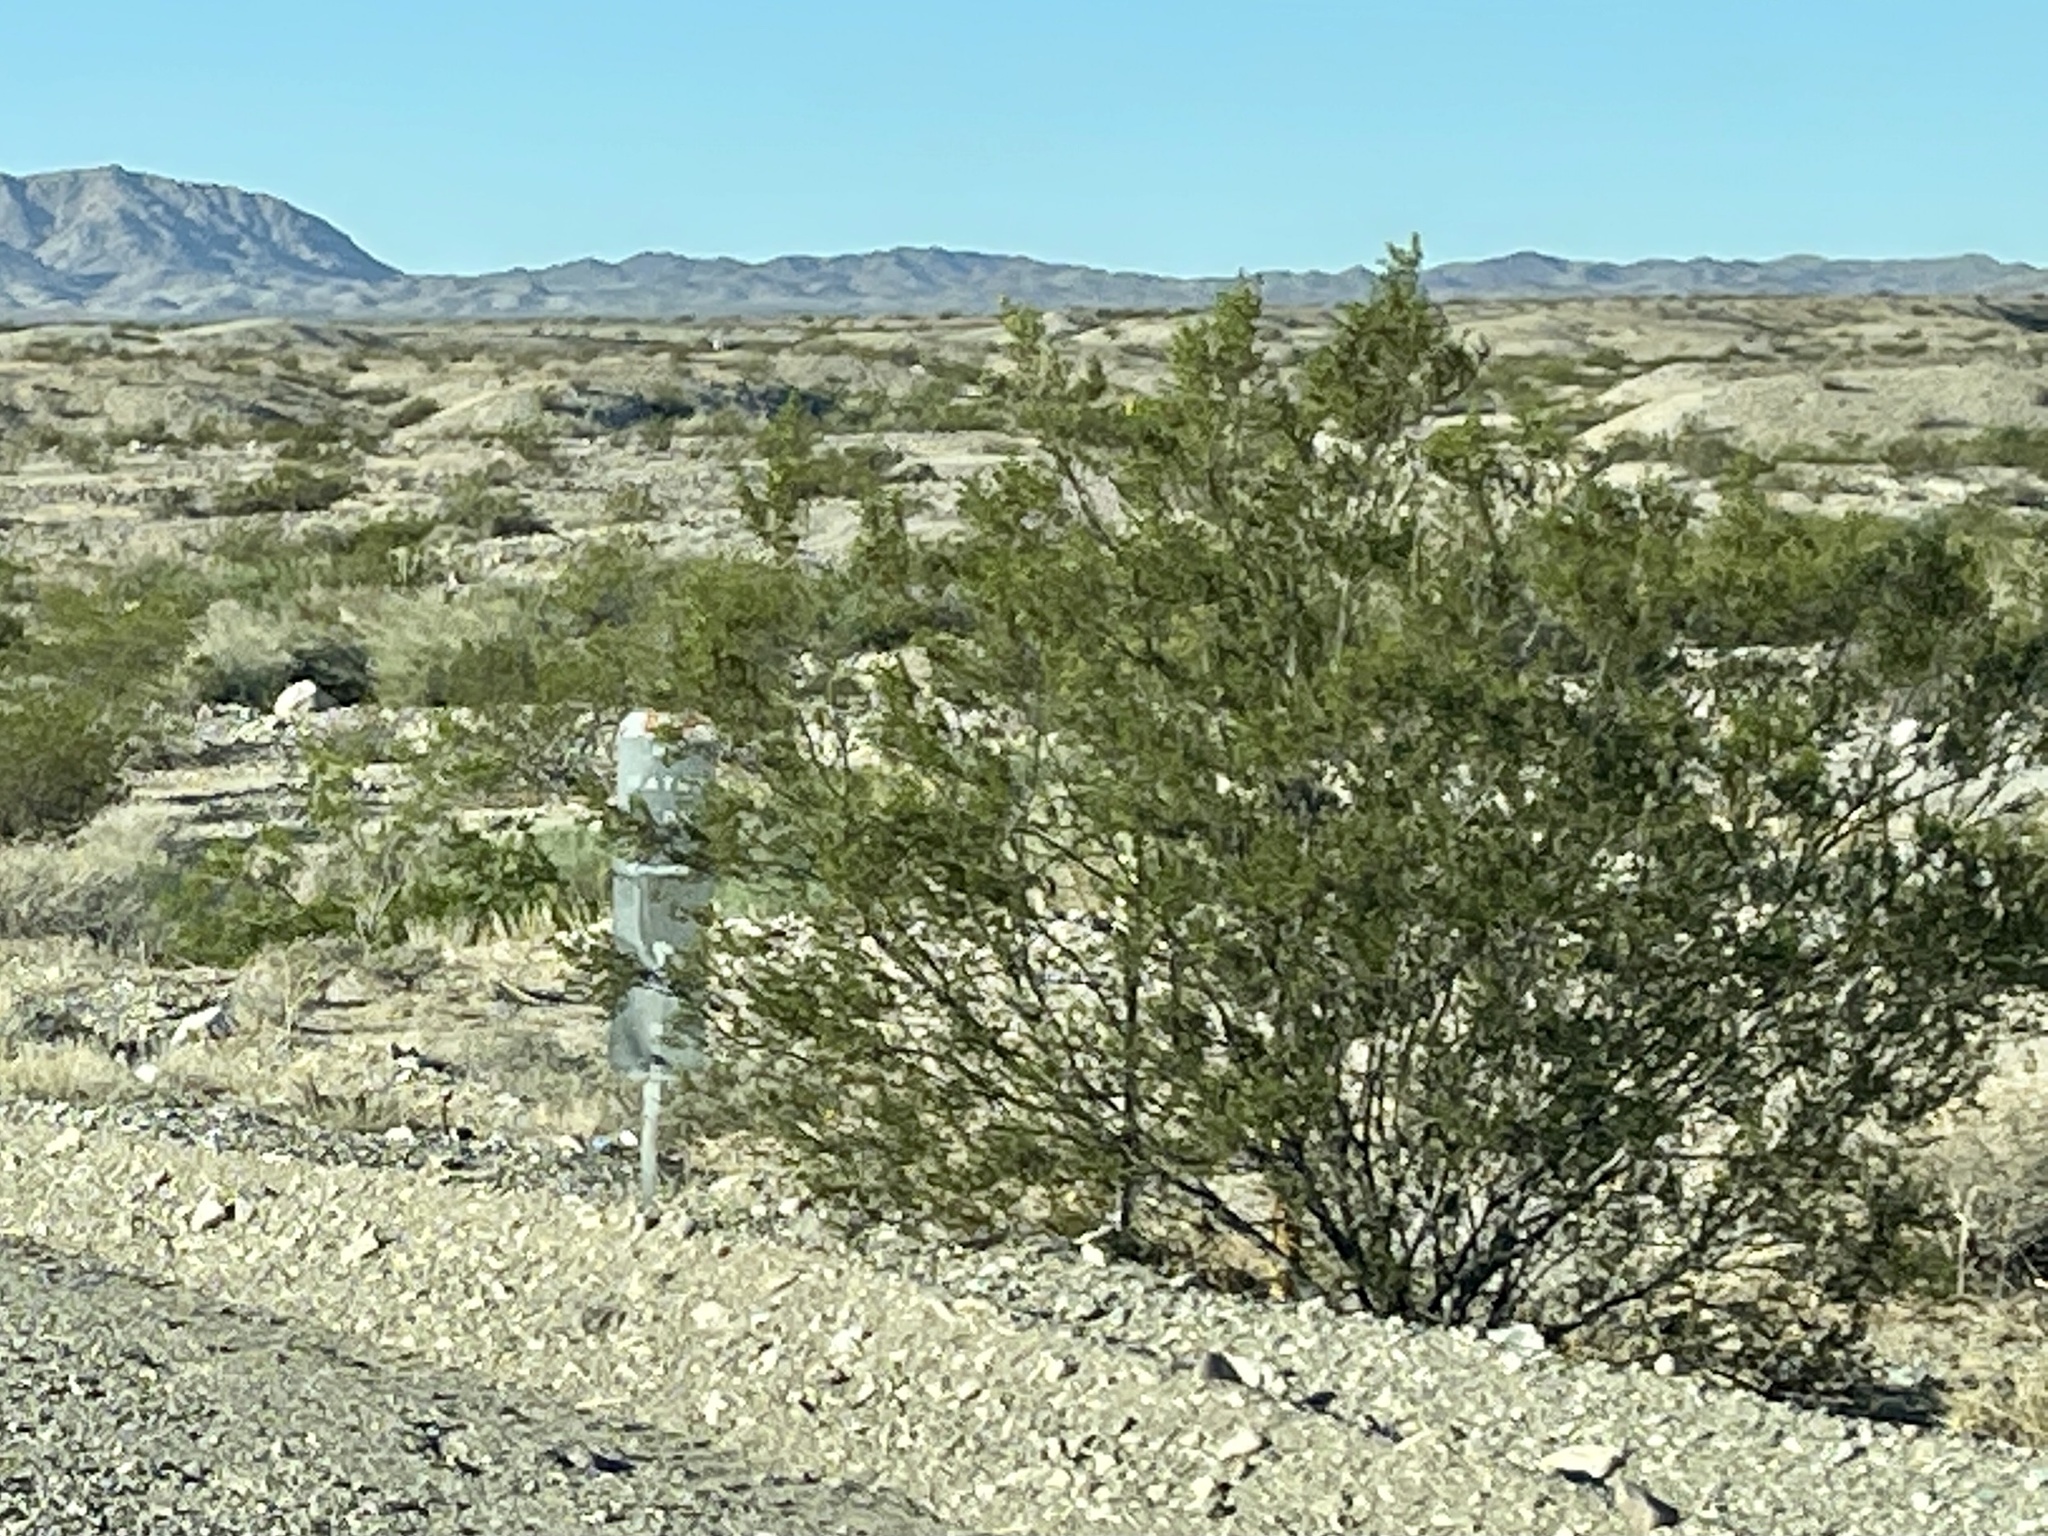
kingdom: Plantae
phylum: Tracheophyta
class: Magnoliopsida
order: Zygophyllales
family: Zygophyllaceae
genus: Larrea
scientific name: Larrea tridentata
